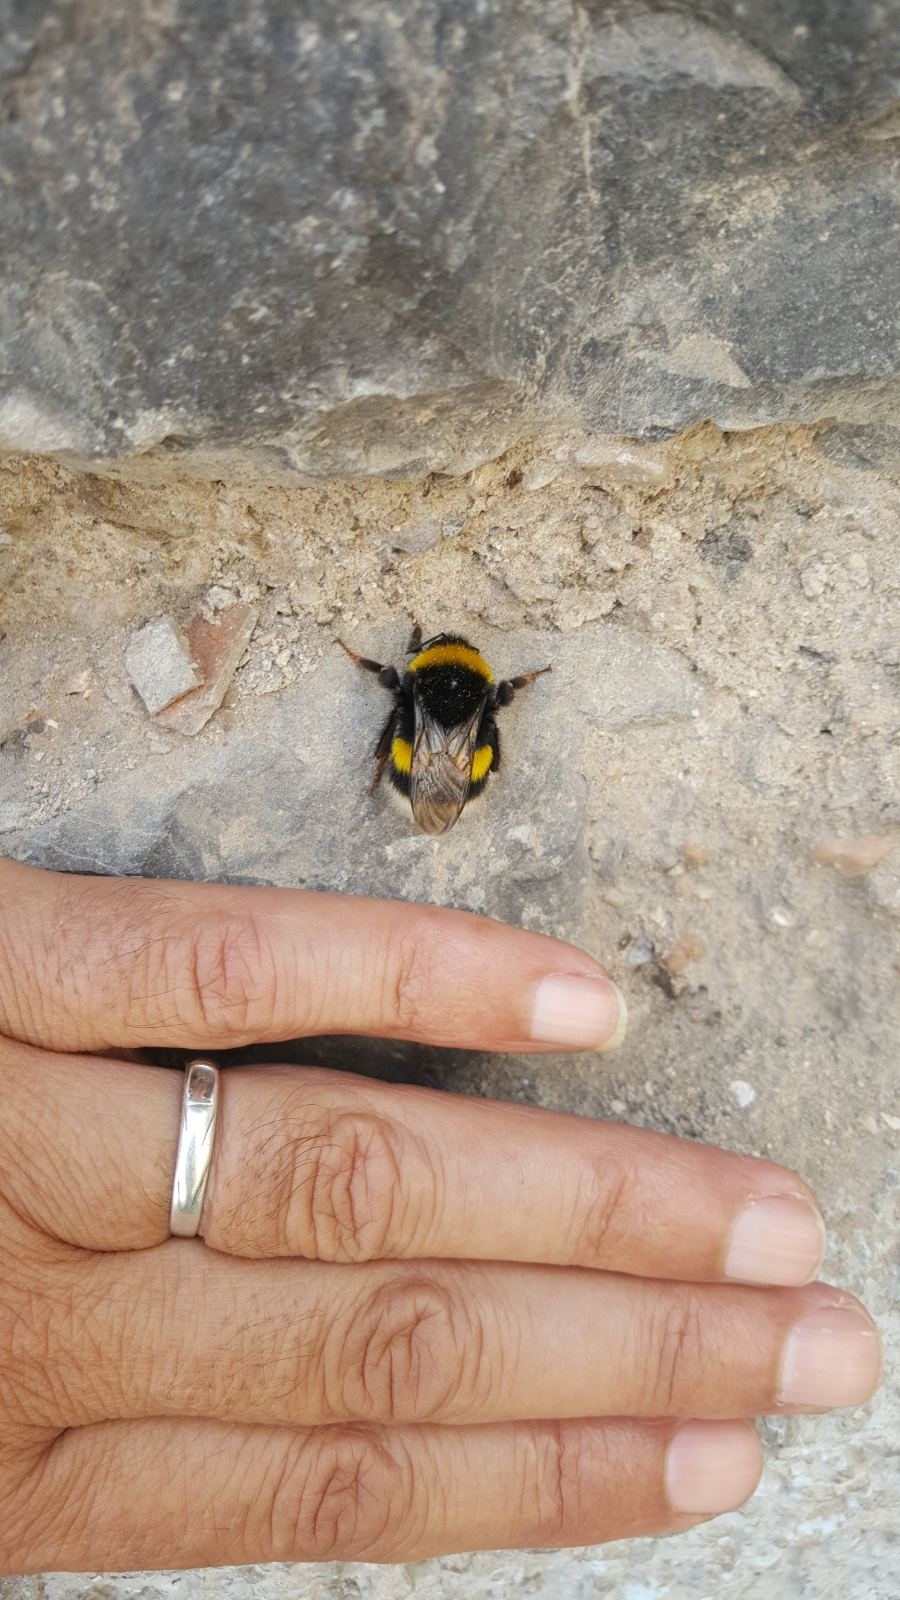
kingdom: Animalia
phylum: Arthropoda
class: Insecta
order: Hymenoptera
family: Apidae
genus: Bombus
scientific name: Bombus terrestris
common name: Buff-tailed bumblebee
